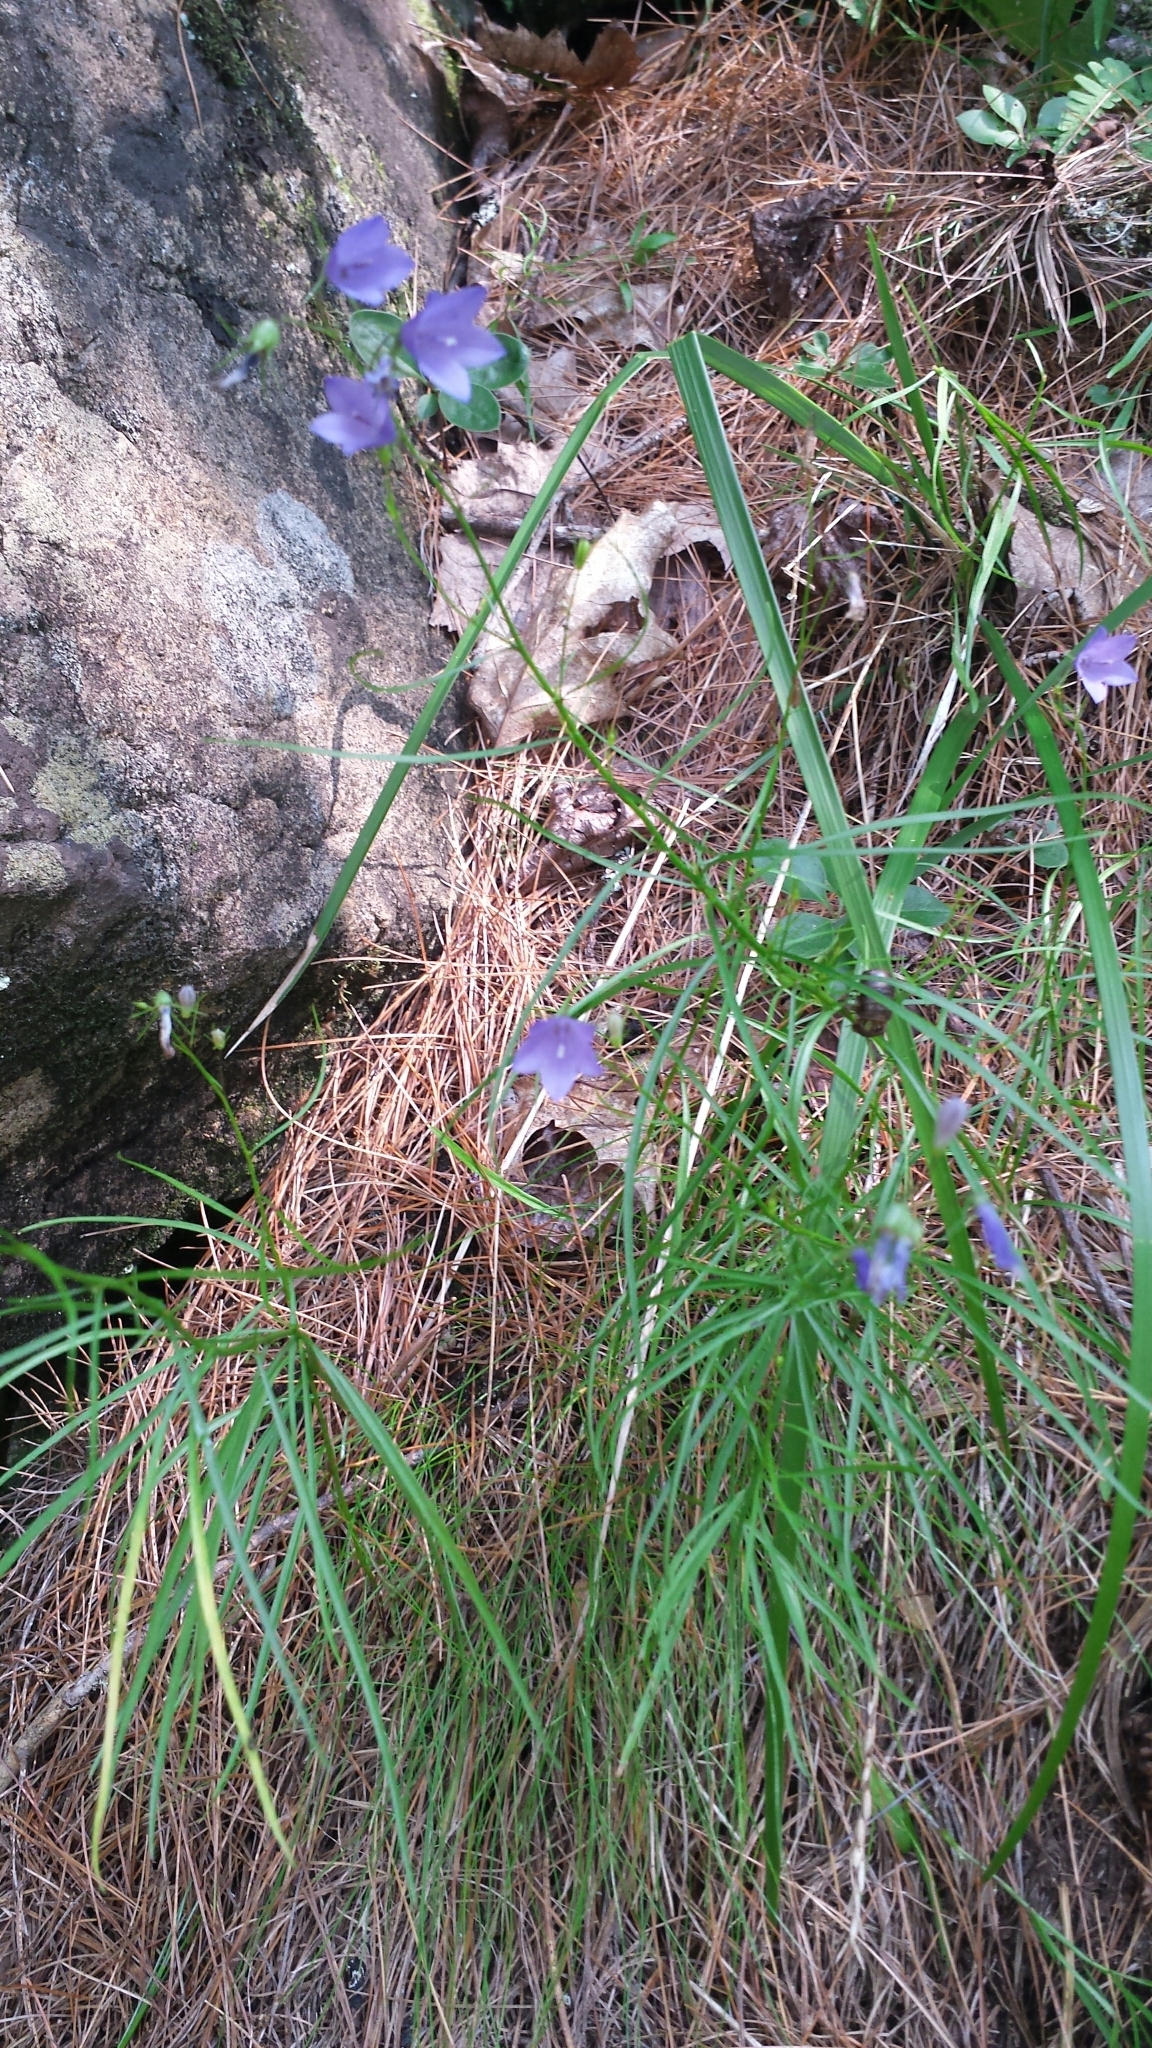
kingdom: Plantae
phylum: Tracheophyta
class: Magnoliopsida
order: Asterales
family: Campanulaceae
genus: Campanula
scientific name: Campanula intercedens
